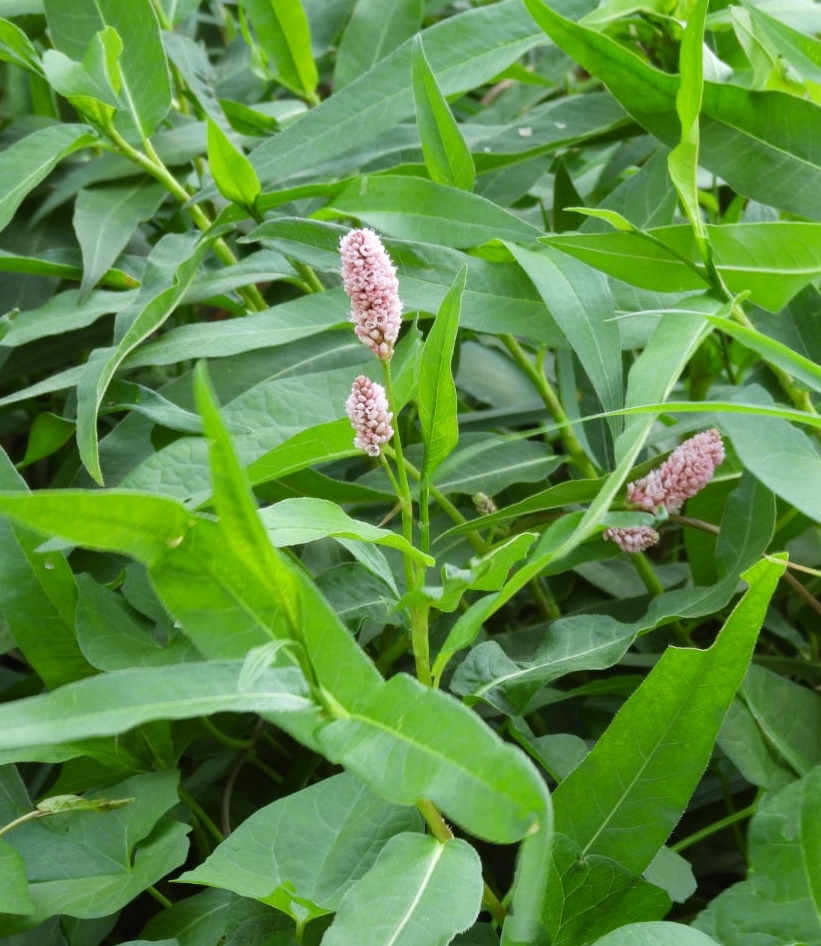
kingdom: Plantae
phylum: Tracheophyta
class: Magnoliopsida
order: Caryophyllales
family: Polygonaceae
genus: Persicaria
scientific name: Persicaria amphibia
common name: Amphibious bistort
